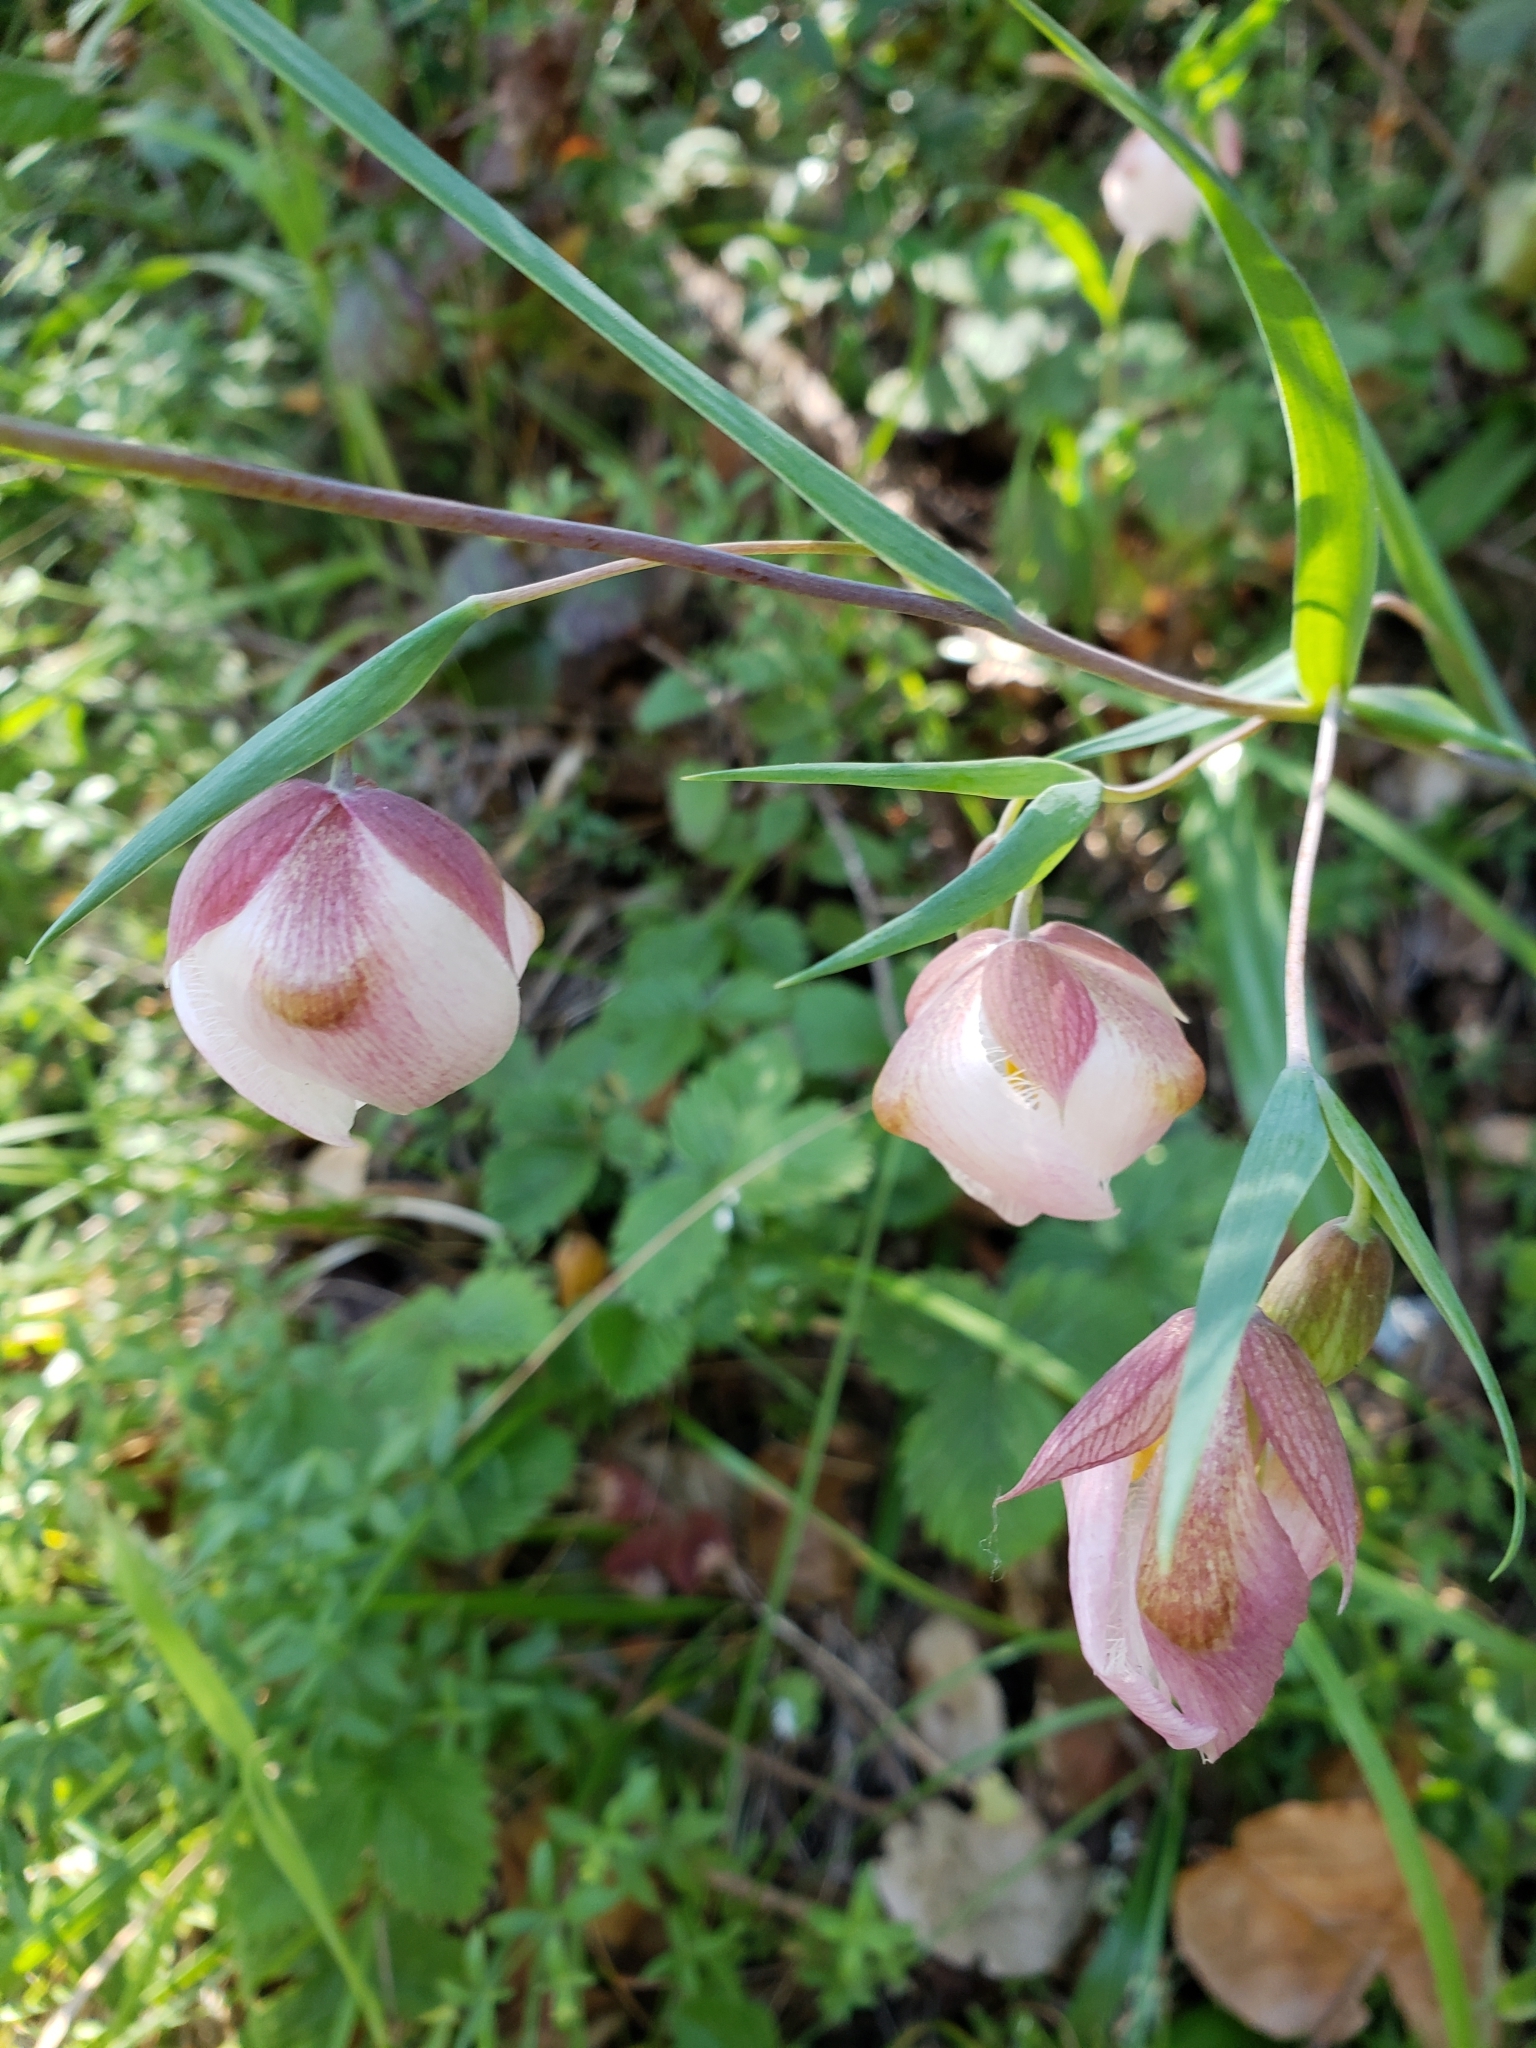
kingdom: Plantae
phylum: Tracheophyta
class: Liliopsida
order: Liliales
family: Liliaceae
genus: Calochortus
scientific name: Calochortus albus
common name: Fairy-lantern
